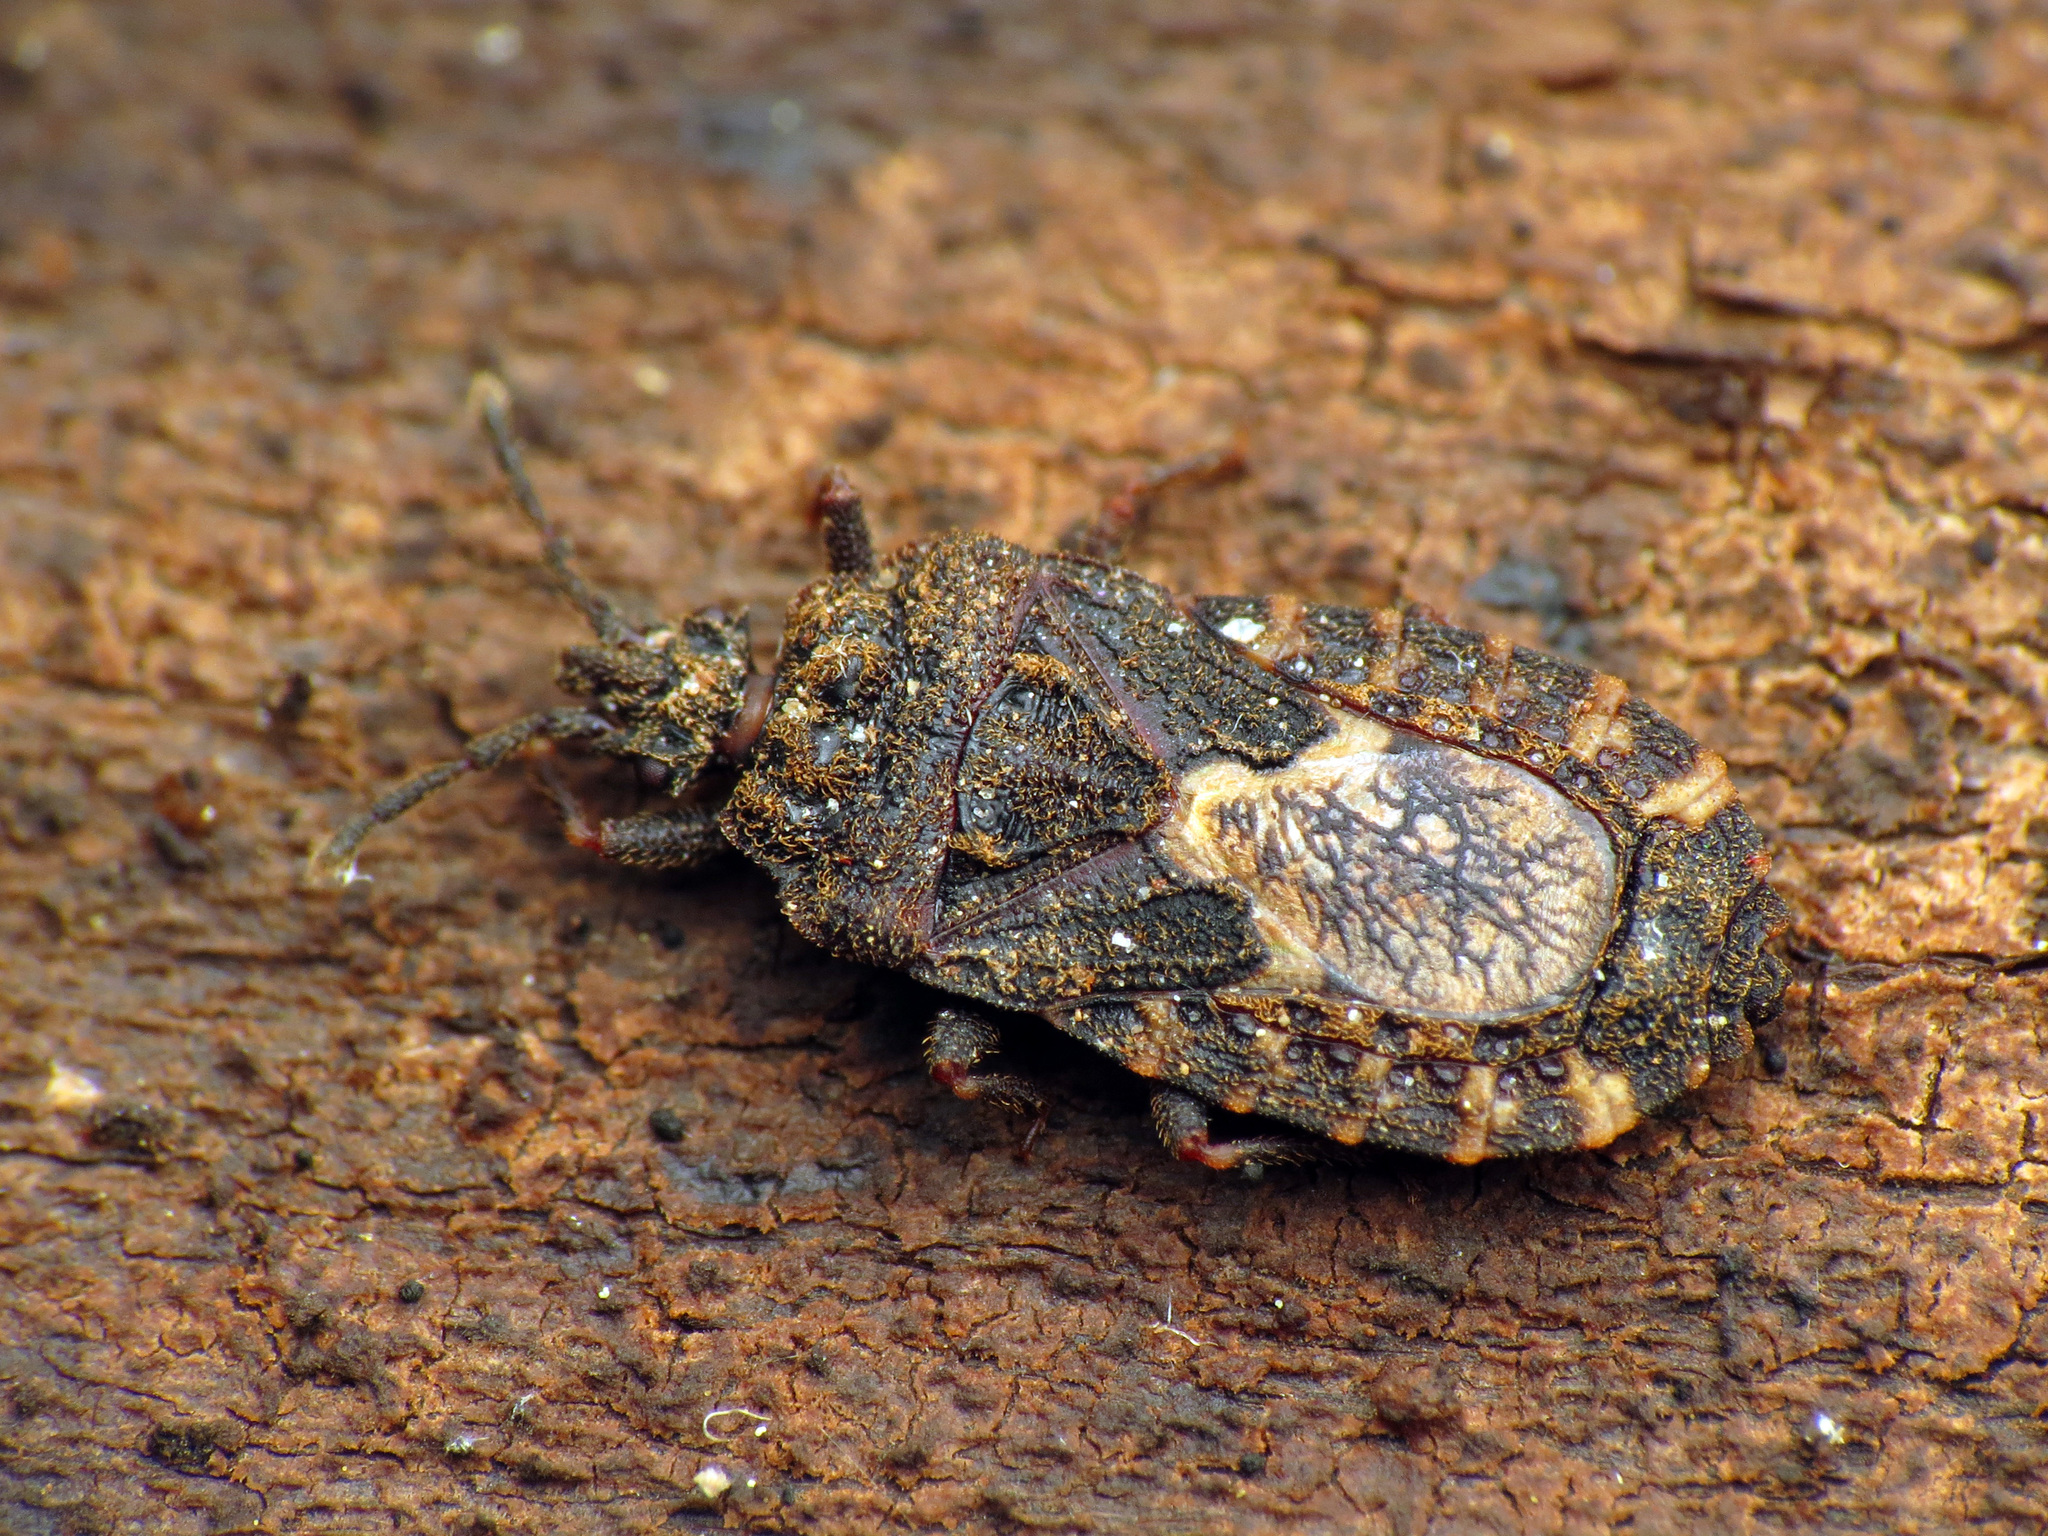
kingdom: Animalia
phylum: Arthropoda
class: Insecta
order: Hemiptera
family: Aradidae
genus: Mezira
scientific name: Mezira
